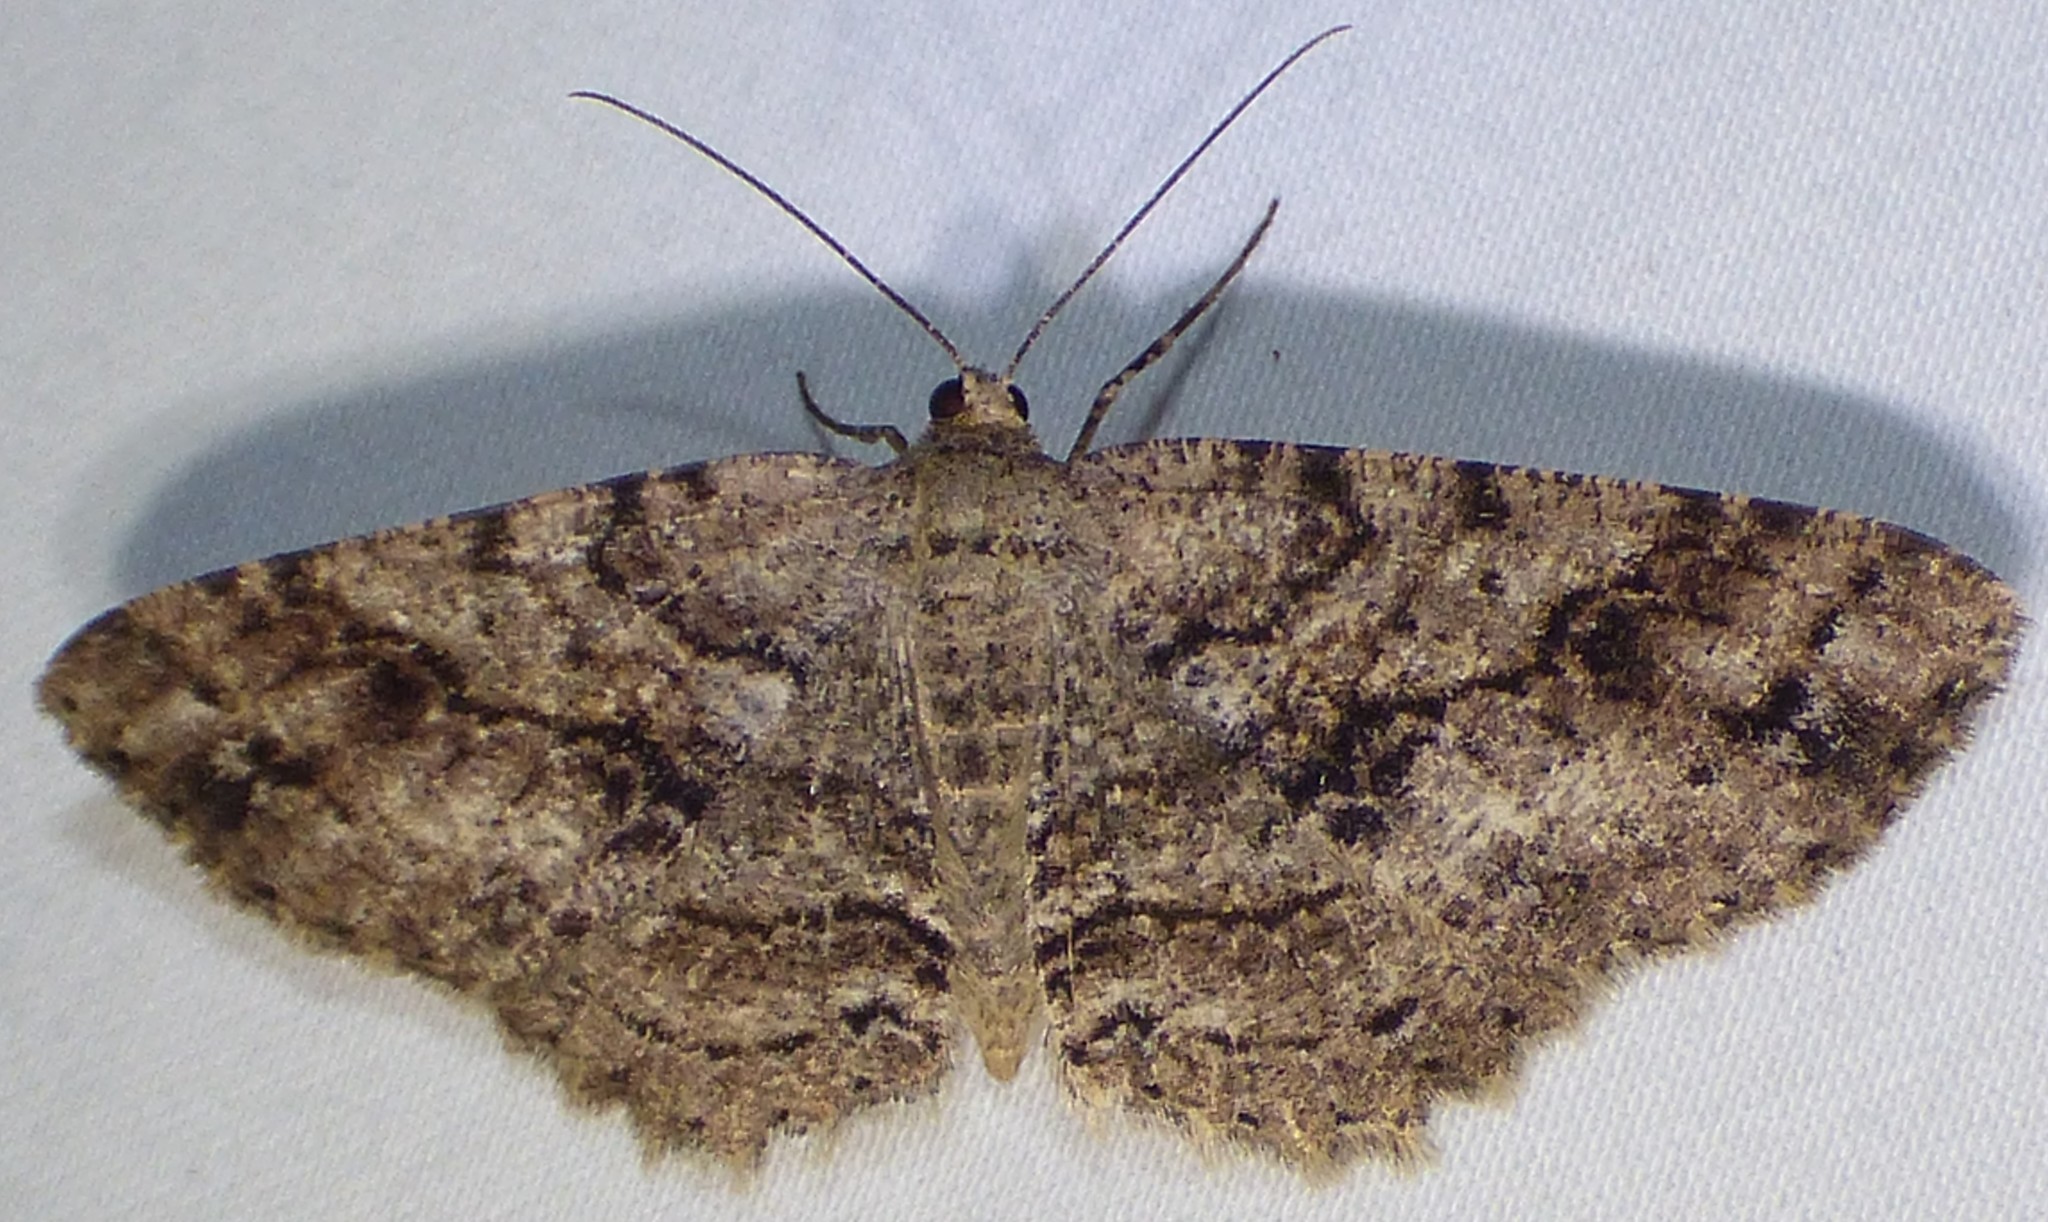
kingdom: Animalia
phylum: Arthropoda
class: Insecta
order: Lepidoptera
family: Geometridae
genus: Melanolophia
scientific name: Melanolophia canadaria
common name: Canadian melanolophia
